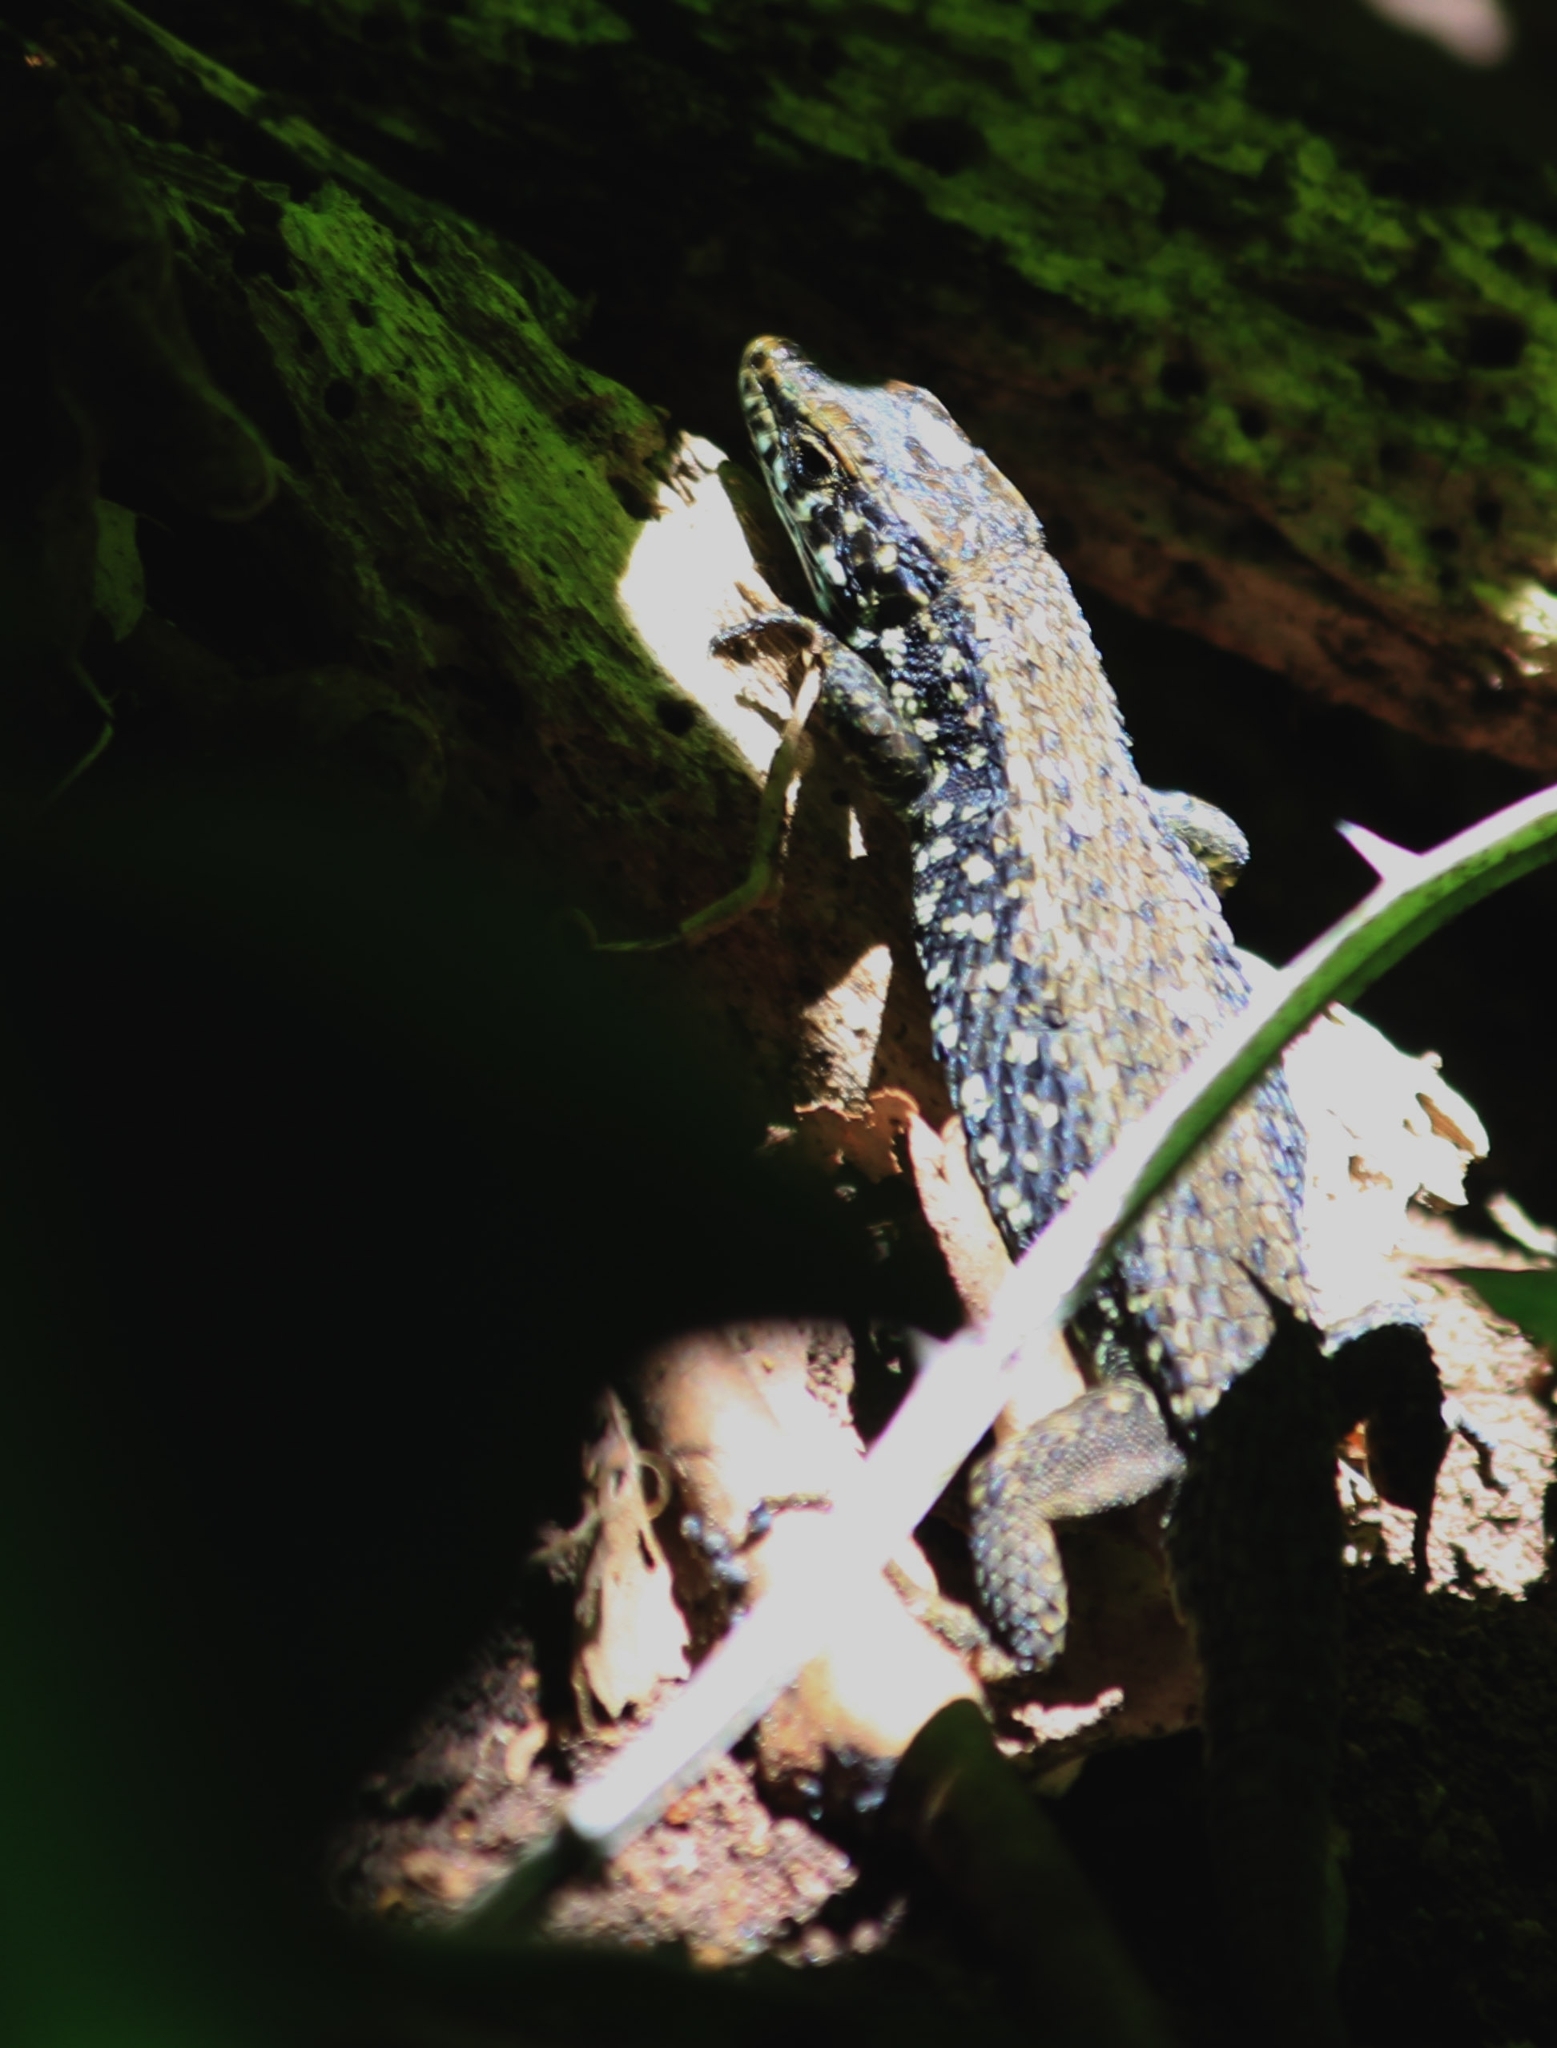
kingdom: Animalia
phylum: Chordata
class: Squamata
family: Lacertidae
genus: Algyroides
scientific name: Algyroides moreoticus
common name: Greek algyroides
